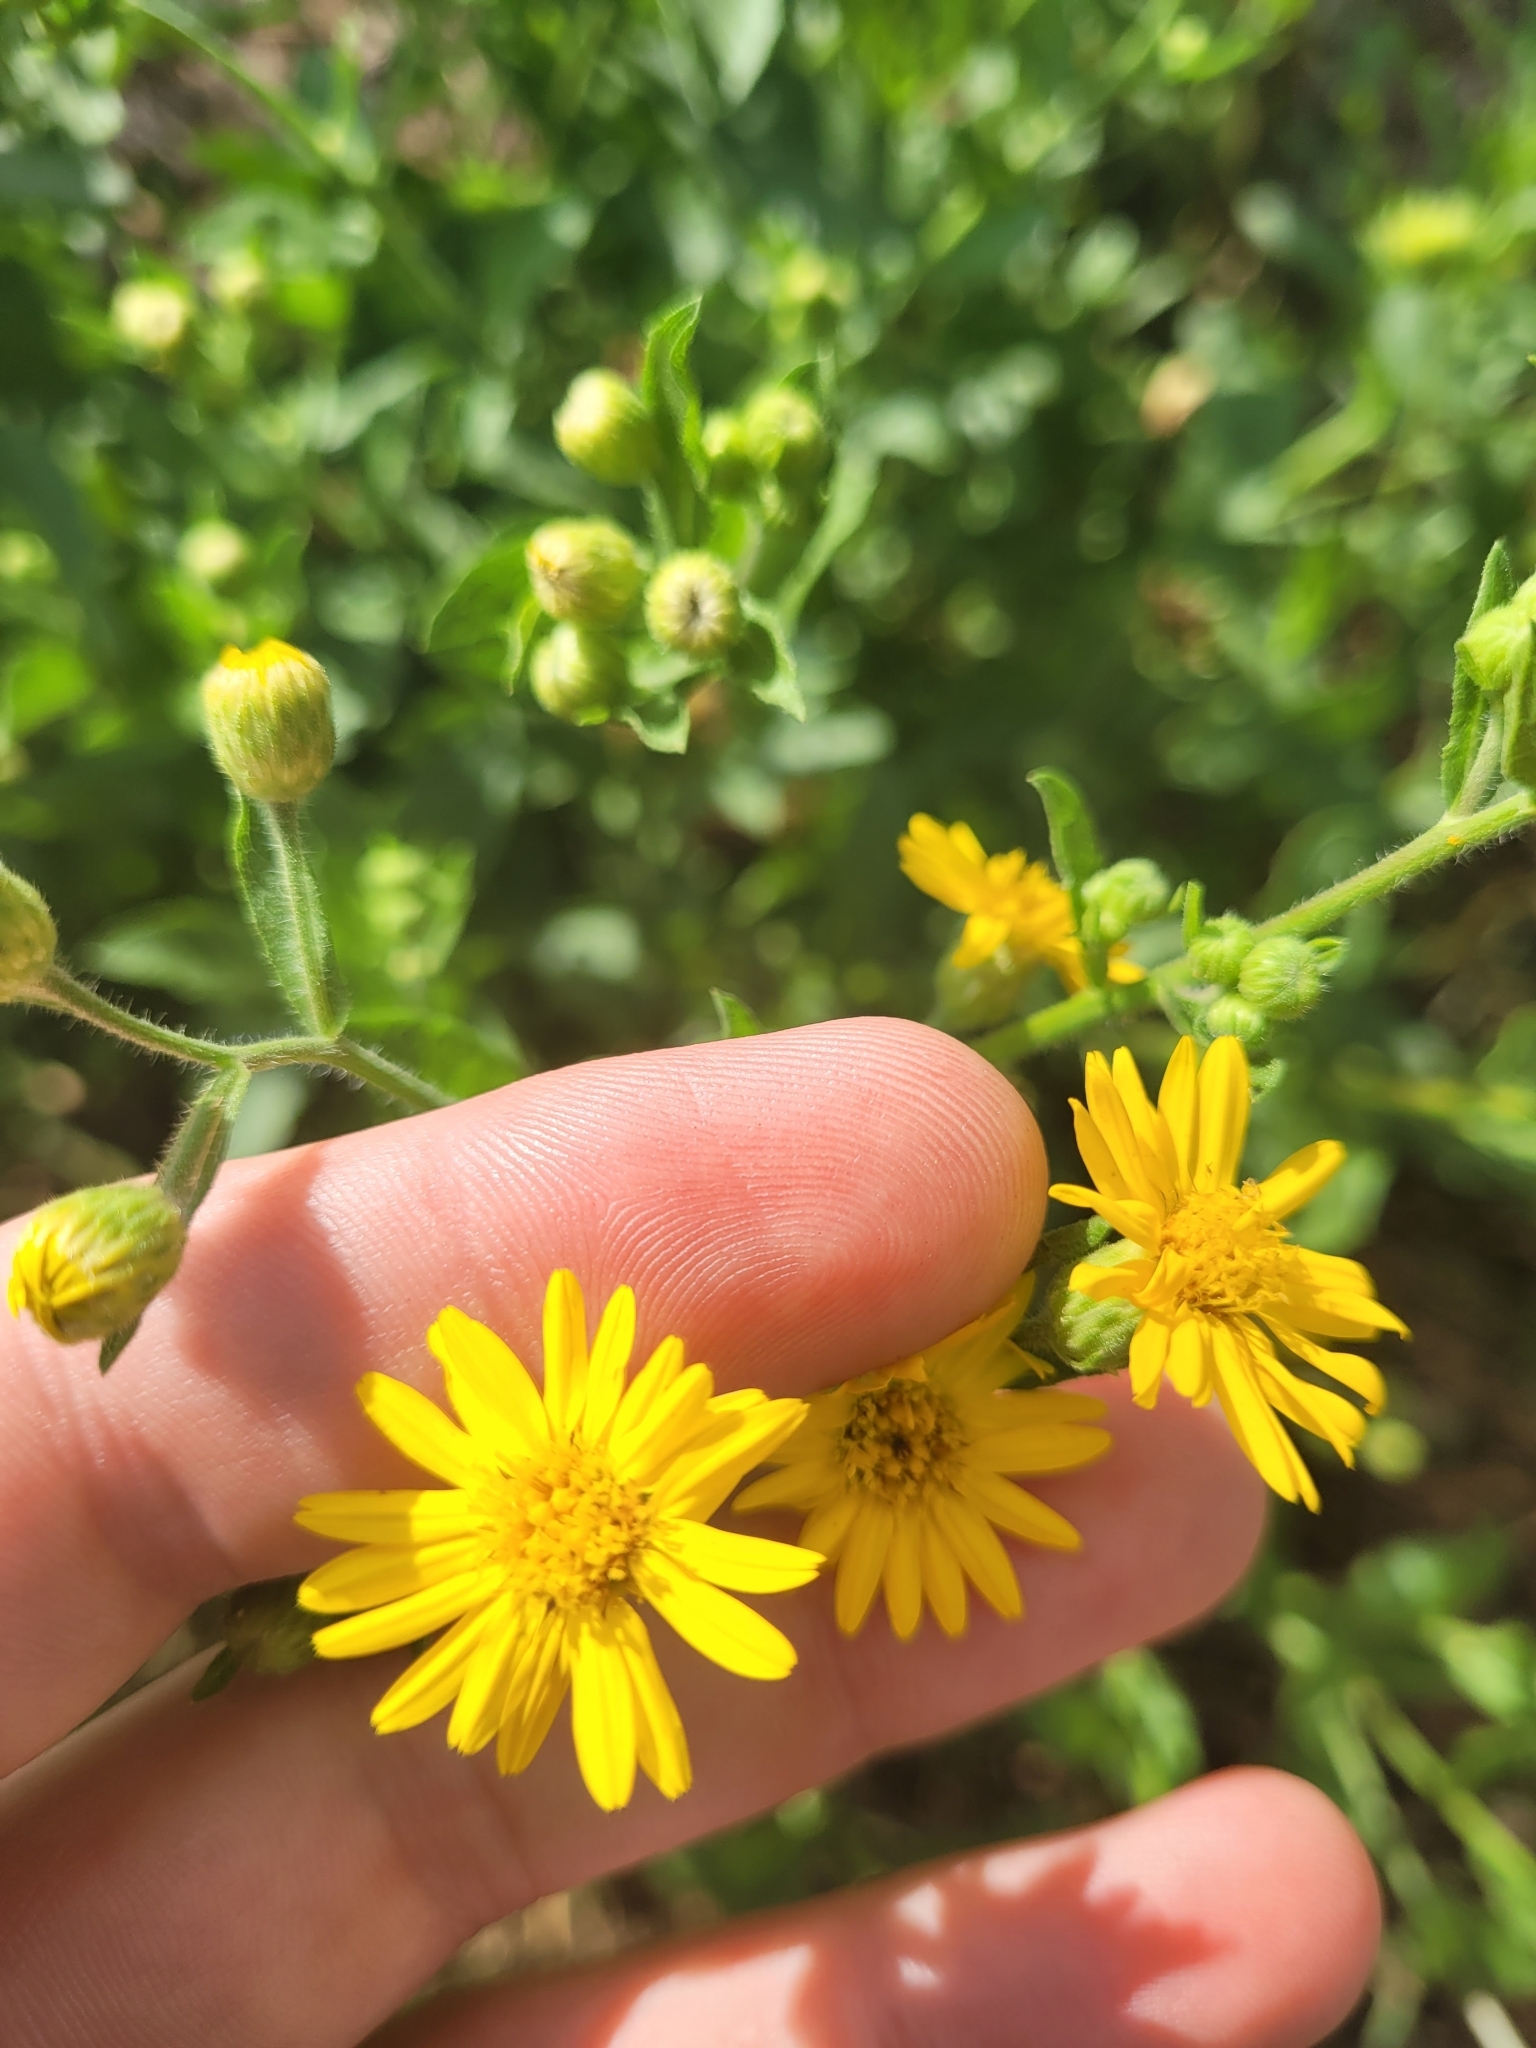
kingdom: Plantae
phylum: Tracheophyta
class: Magnoliopsida
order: Asterales
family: Asteraceae
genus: Heterotheca
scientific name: Heterotheca subaxillaris
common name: Camphorweed
